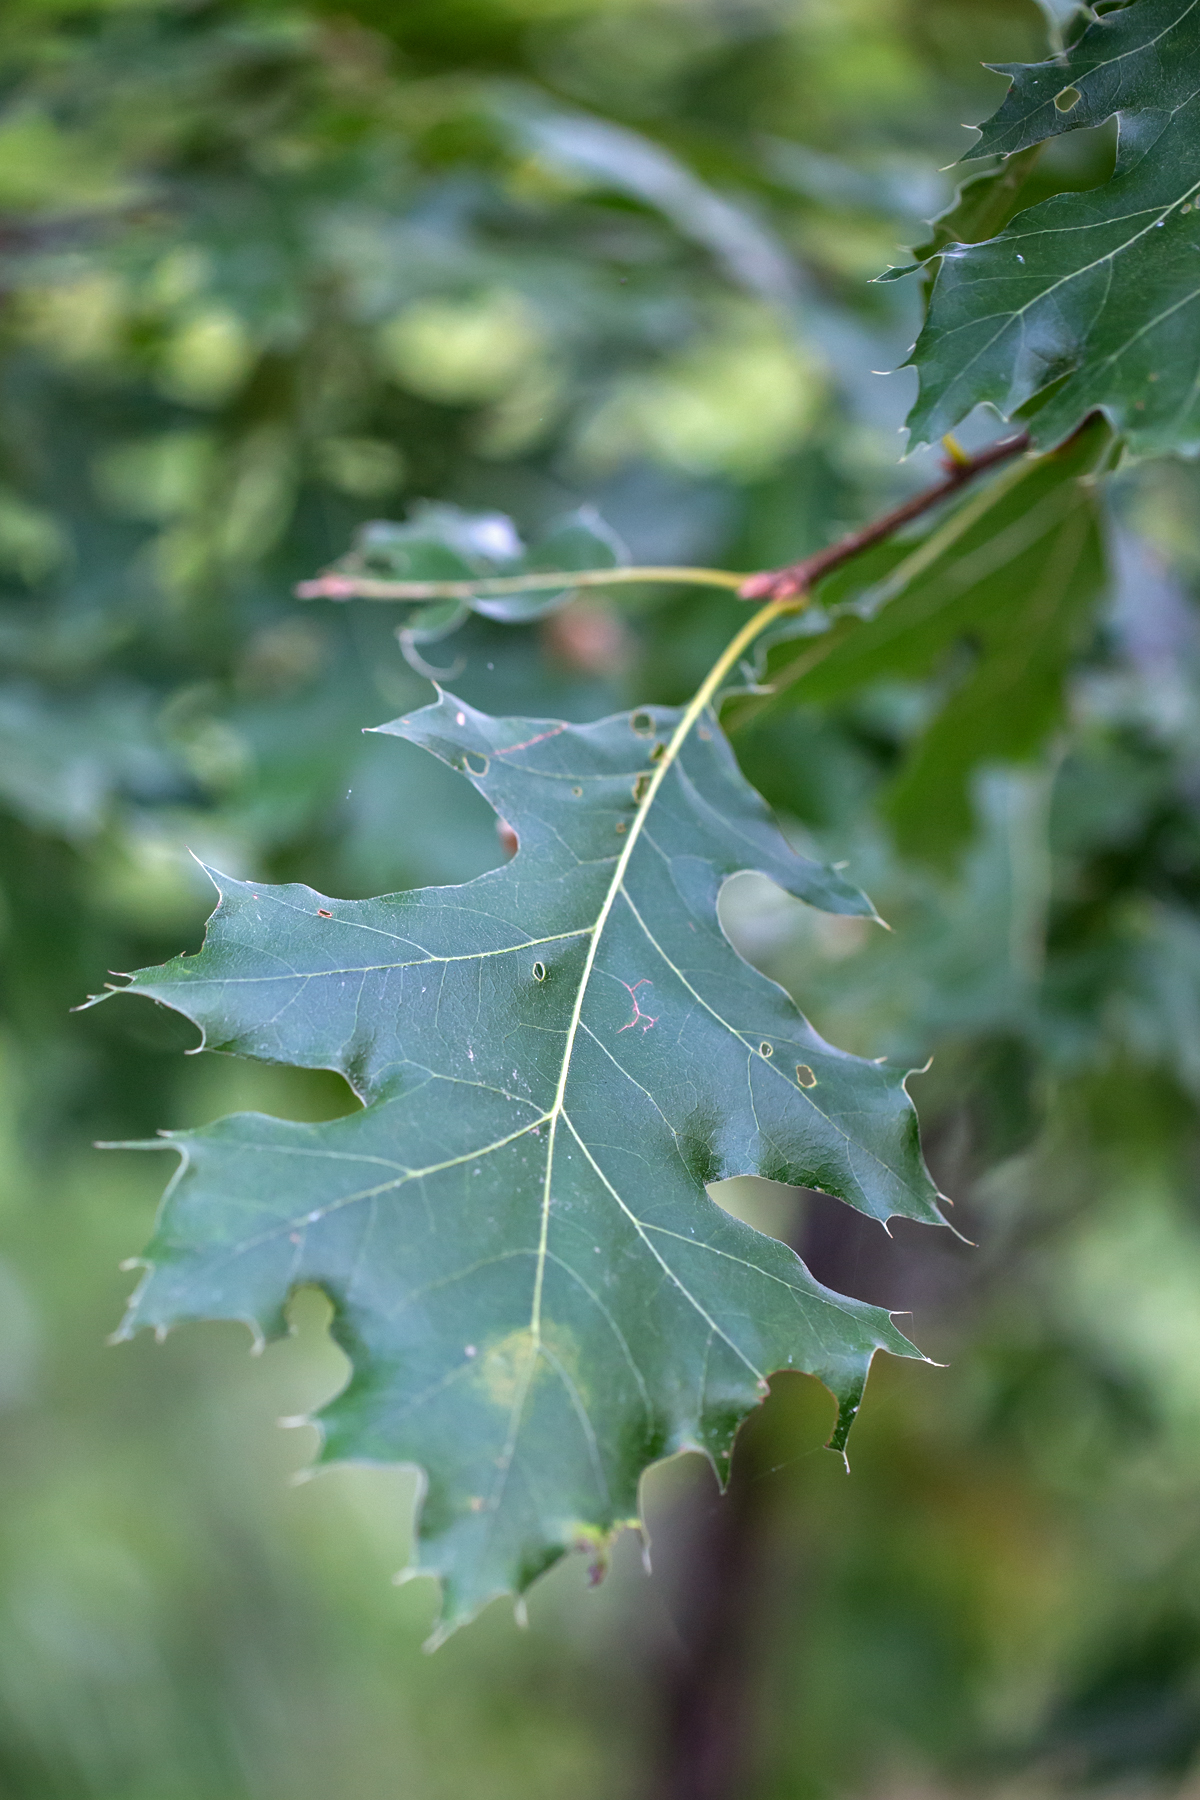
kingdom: Plantae
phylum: Tracheophyta
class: Magnoliopsida
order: Fagales
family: Fagaceae
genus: Quercus
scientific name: Quercus rubra
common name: Red oak
